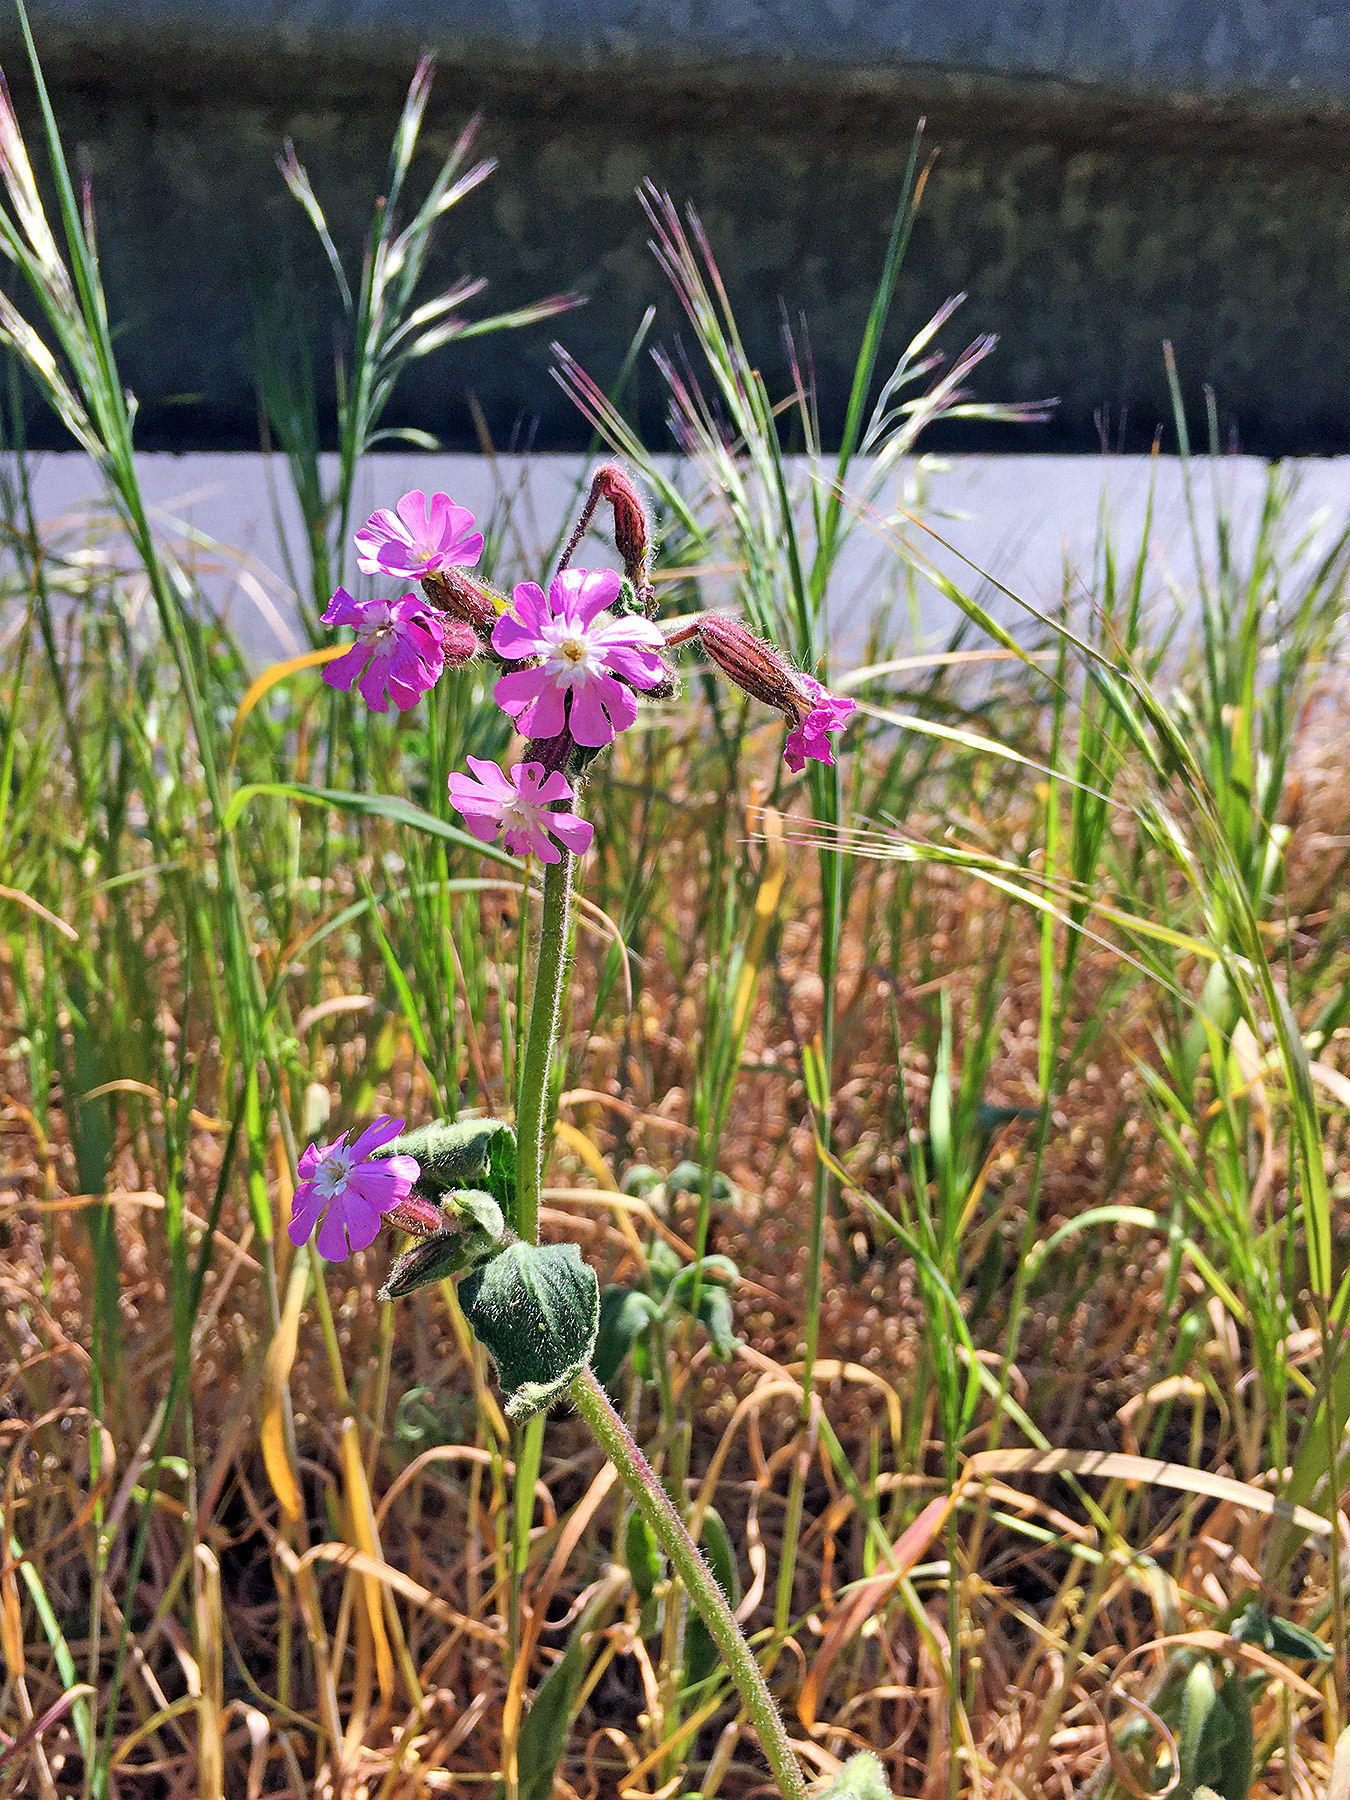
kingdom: Plantae
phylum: Tracheophyta
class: Magnoliopsida
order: Caryophyllales
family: Caryophyllaceae
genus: Silene
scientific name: Silene dioica
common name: Red campion
